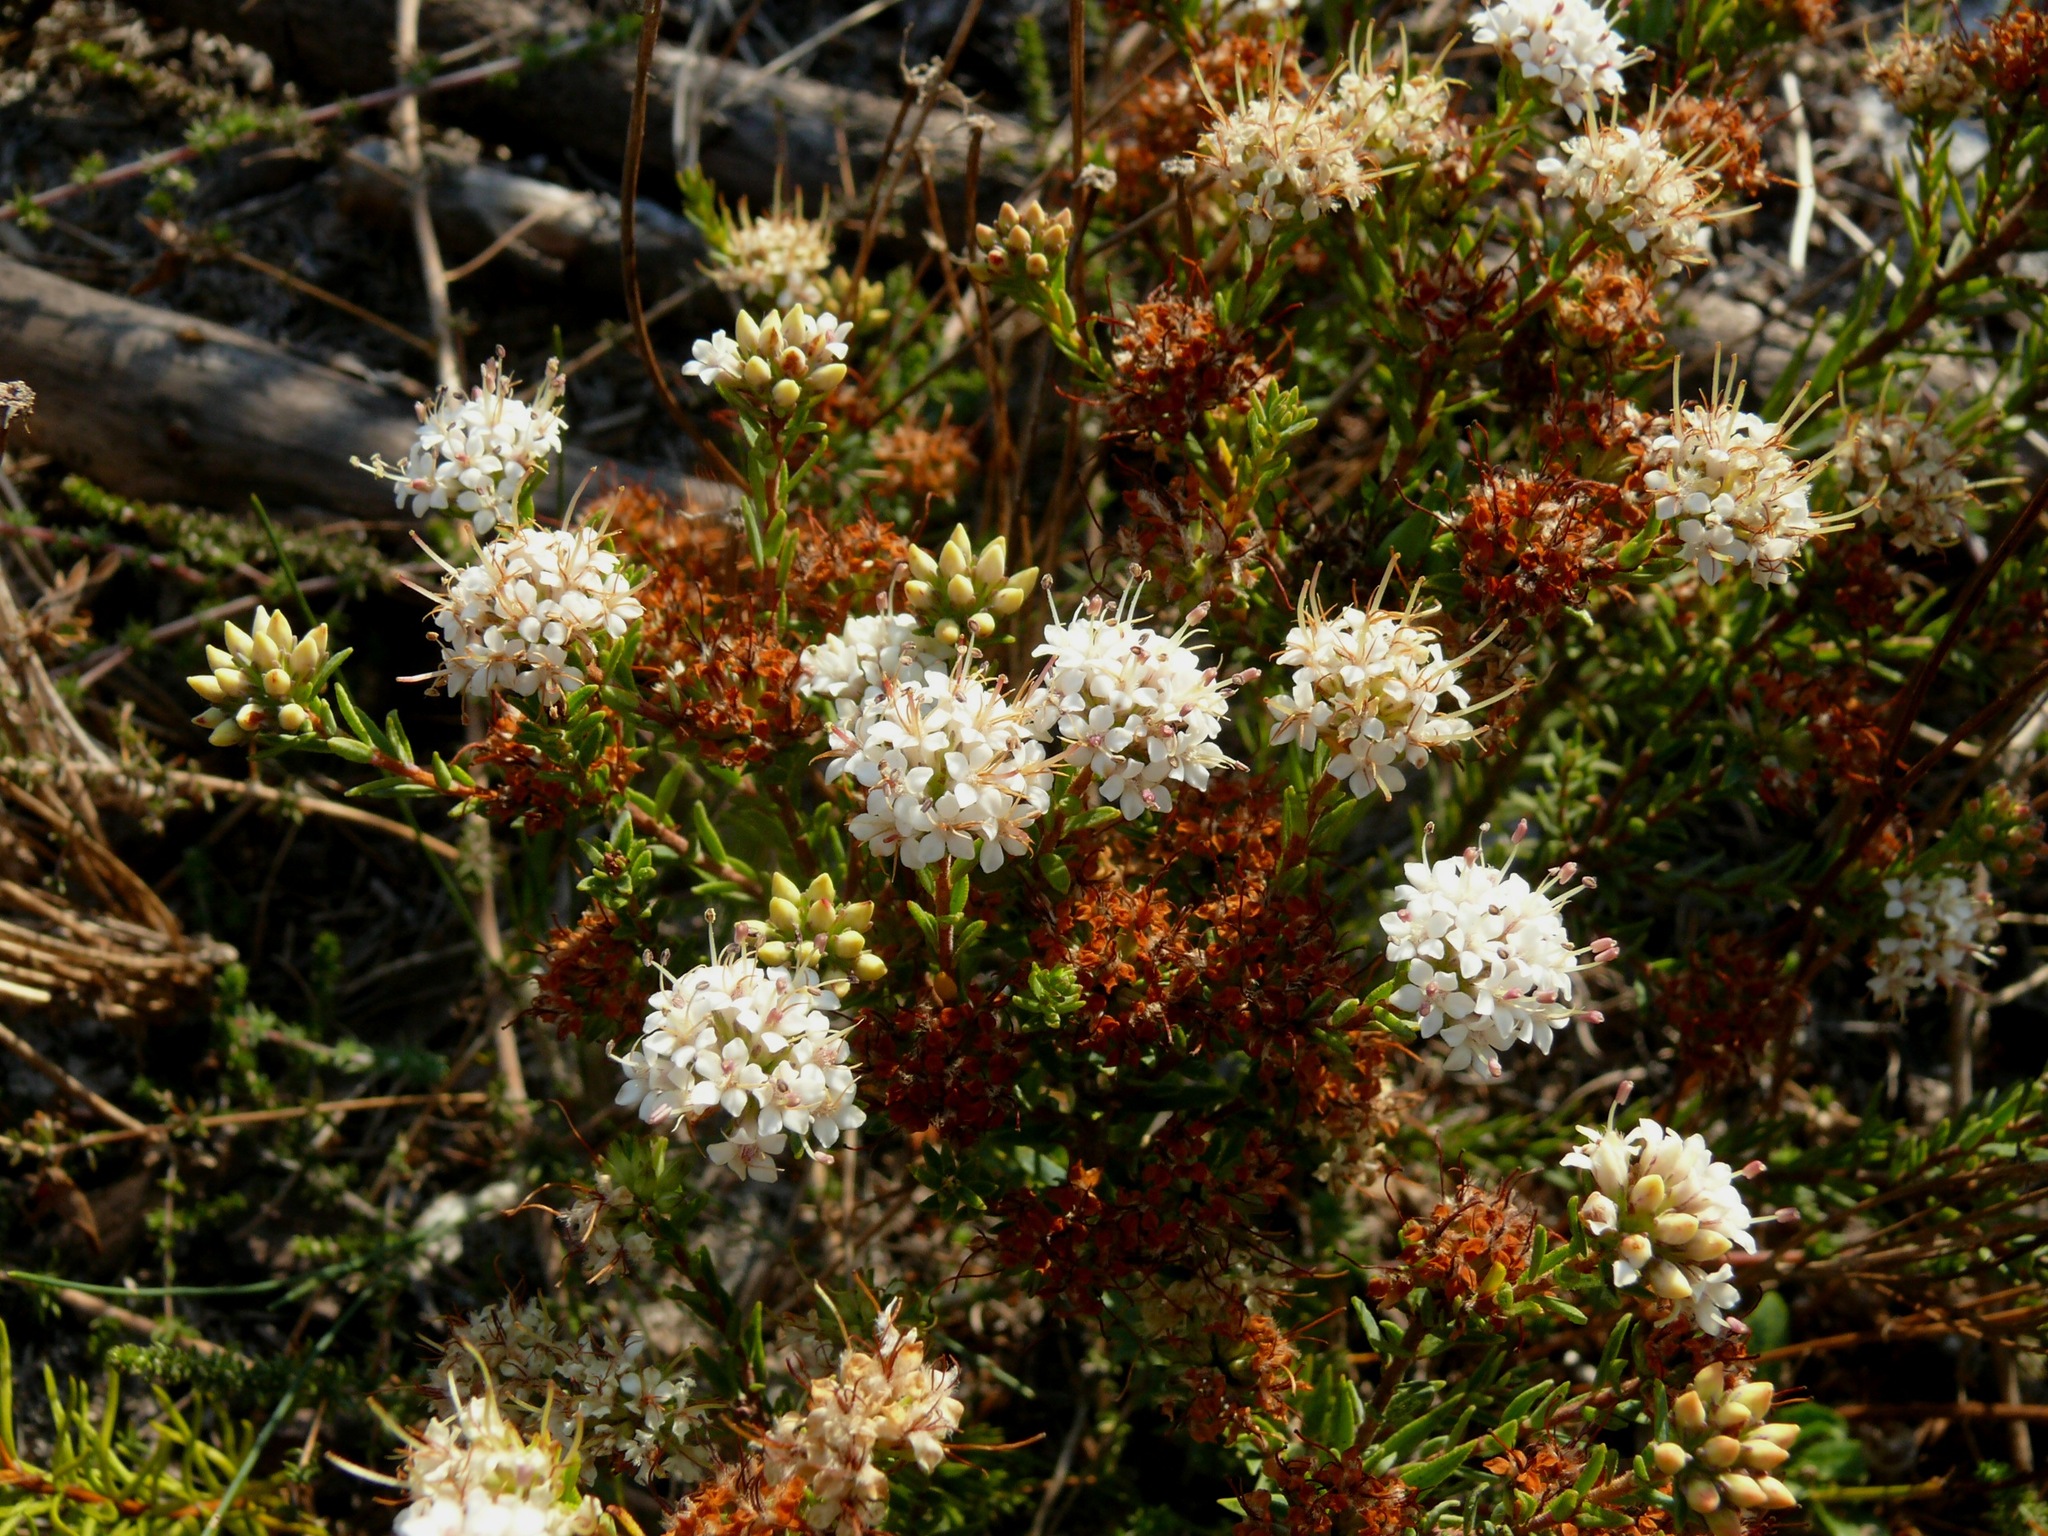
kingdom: Plantae
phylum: Tracheophyta
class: Magnoliopsida
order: Sapindales
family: Rutaceae
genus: Macrostylis
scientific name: Macrostylis villosa
